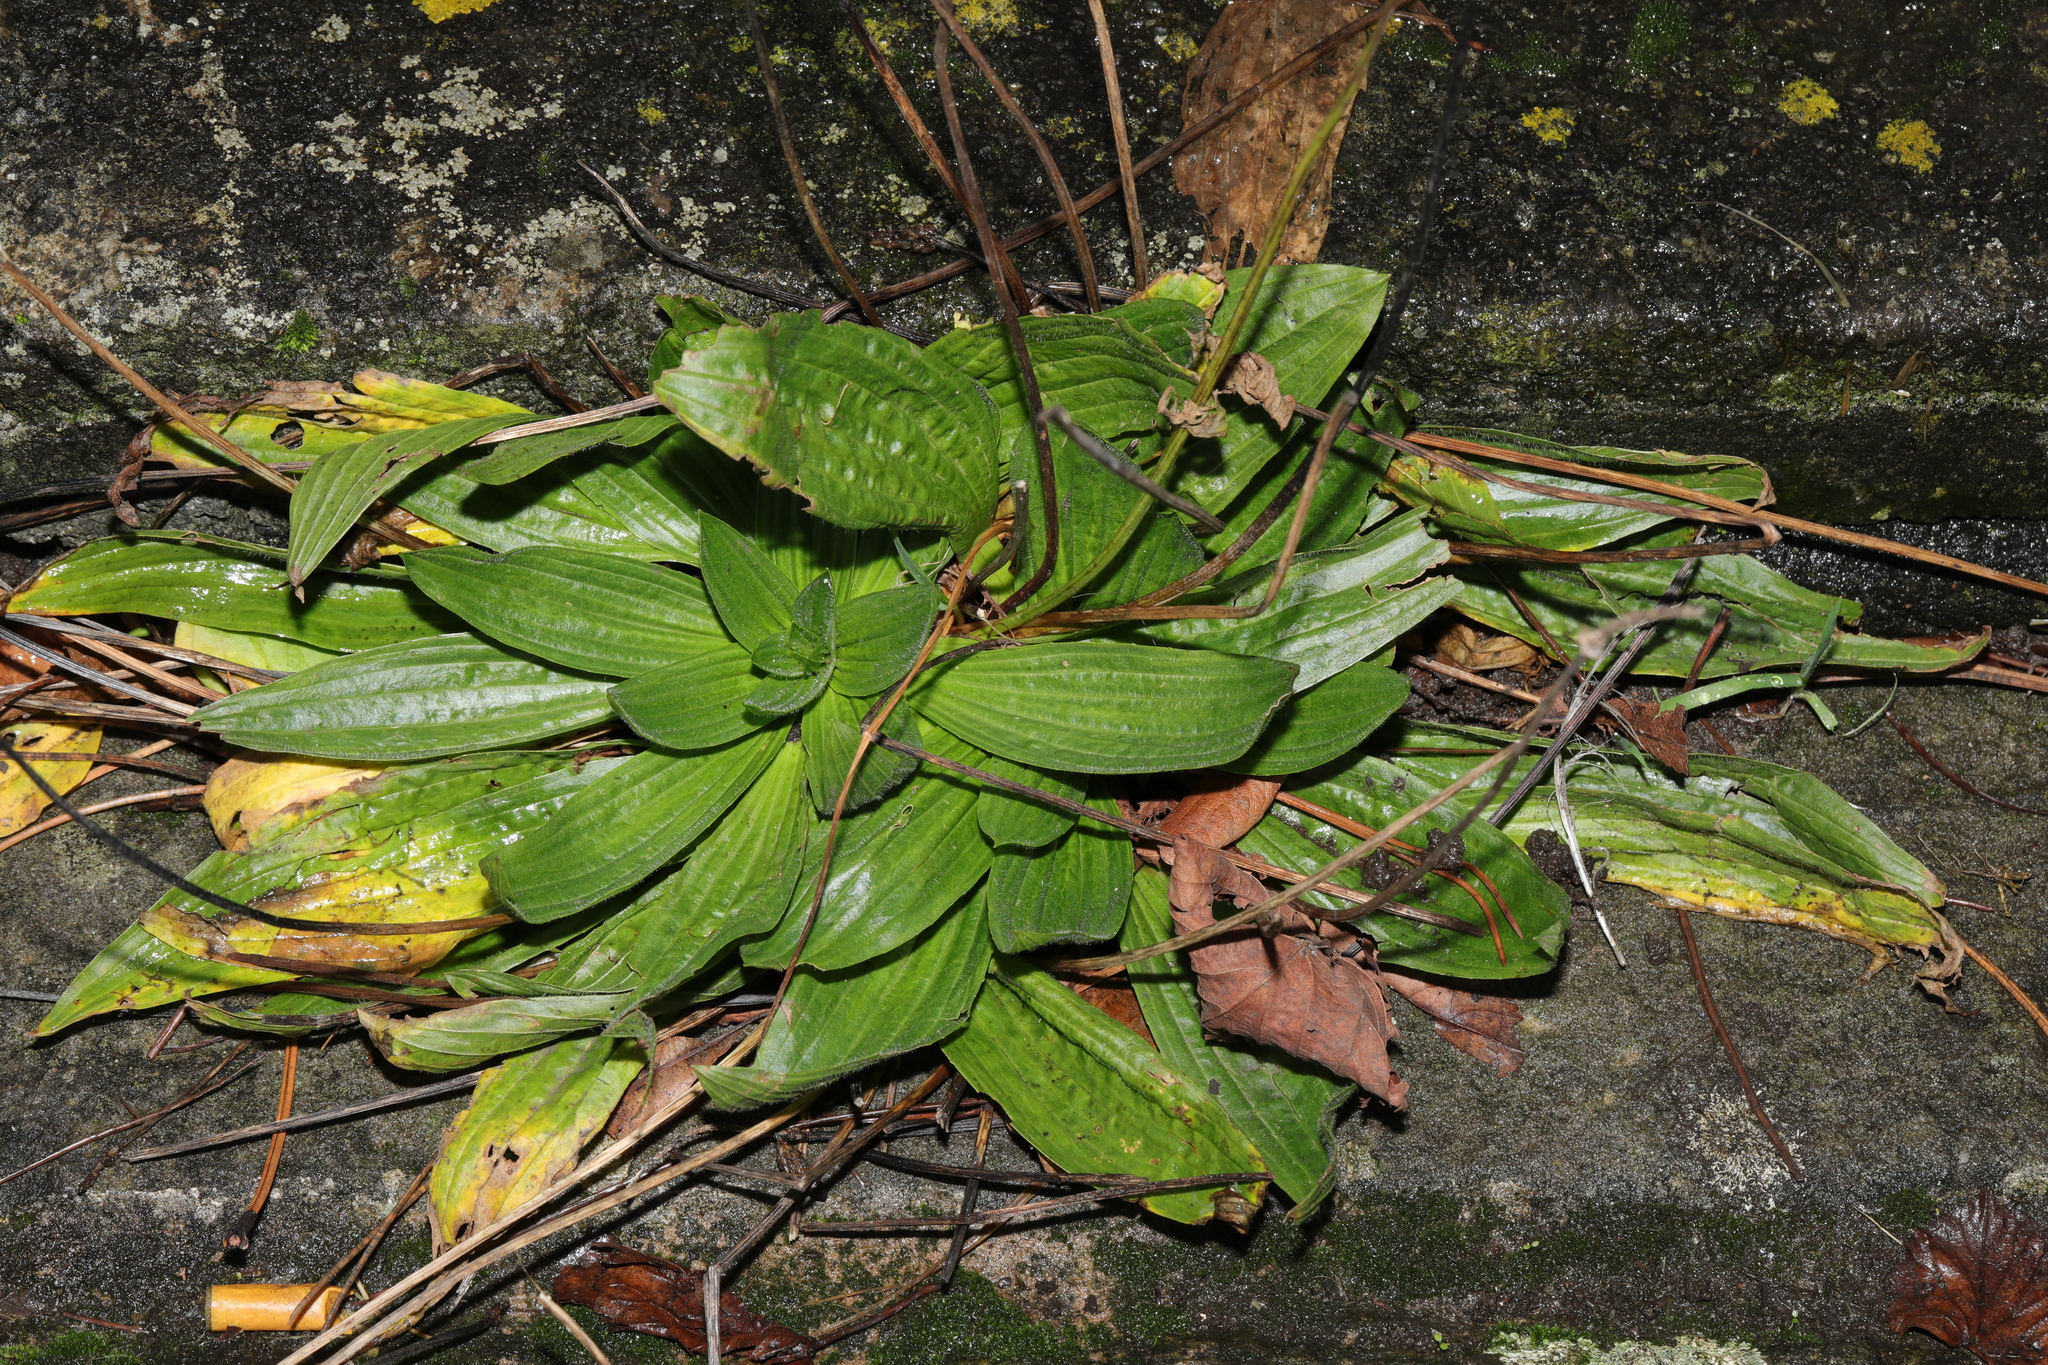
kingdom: Plantae
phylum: Tracheophyta
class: Magnoliopsida
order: Lamiales
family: Plantaginaceae
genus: Plantago
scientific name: Plantago lanceolata
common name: Ribwort plantain
